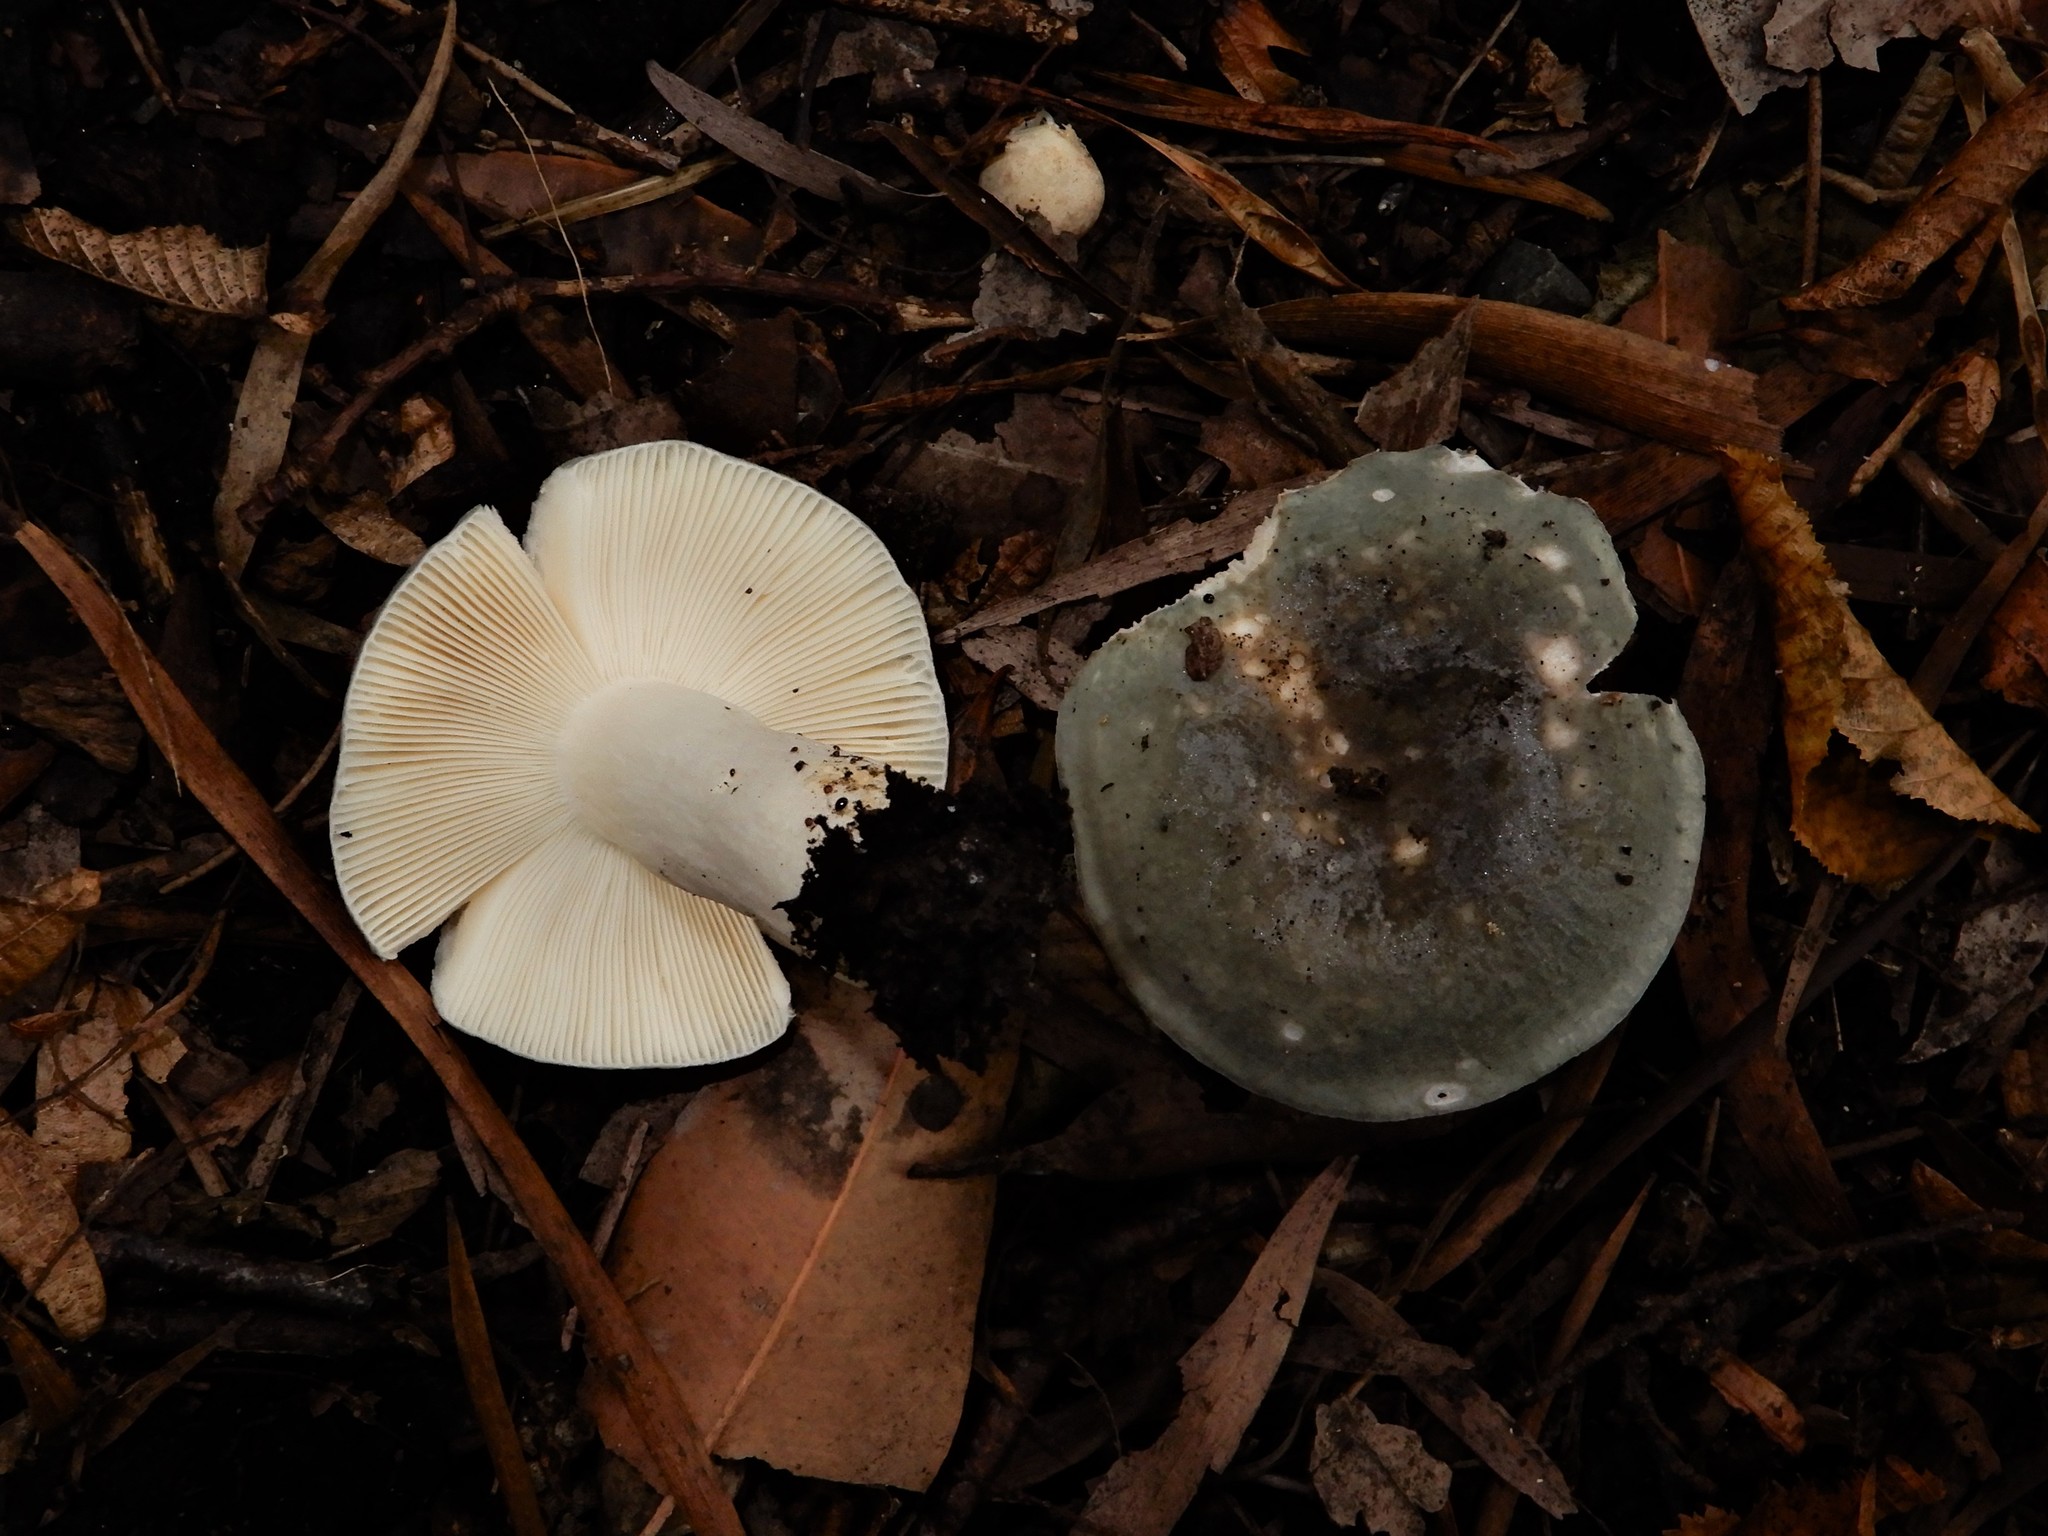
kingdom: Fungi
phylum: Basidiomycota
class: Agaricomycetes
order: Russulales
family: Russulaceae
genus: Russula
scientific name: Russula grisea
